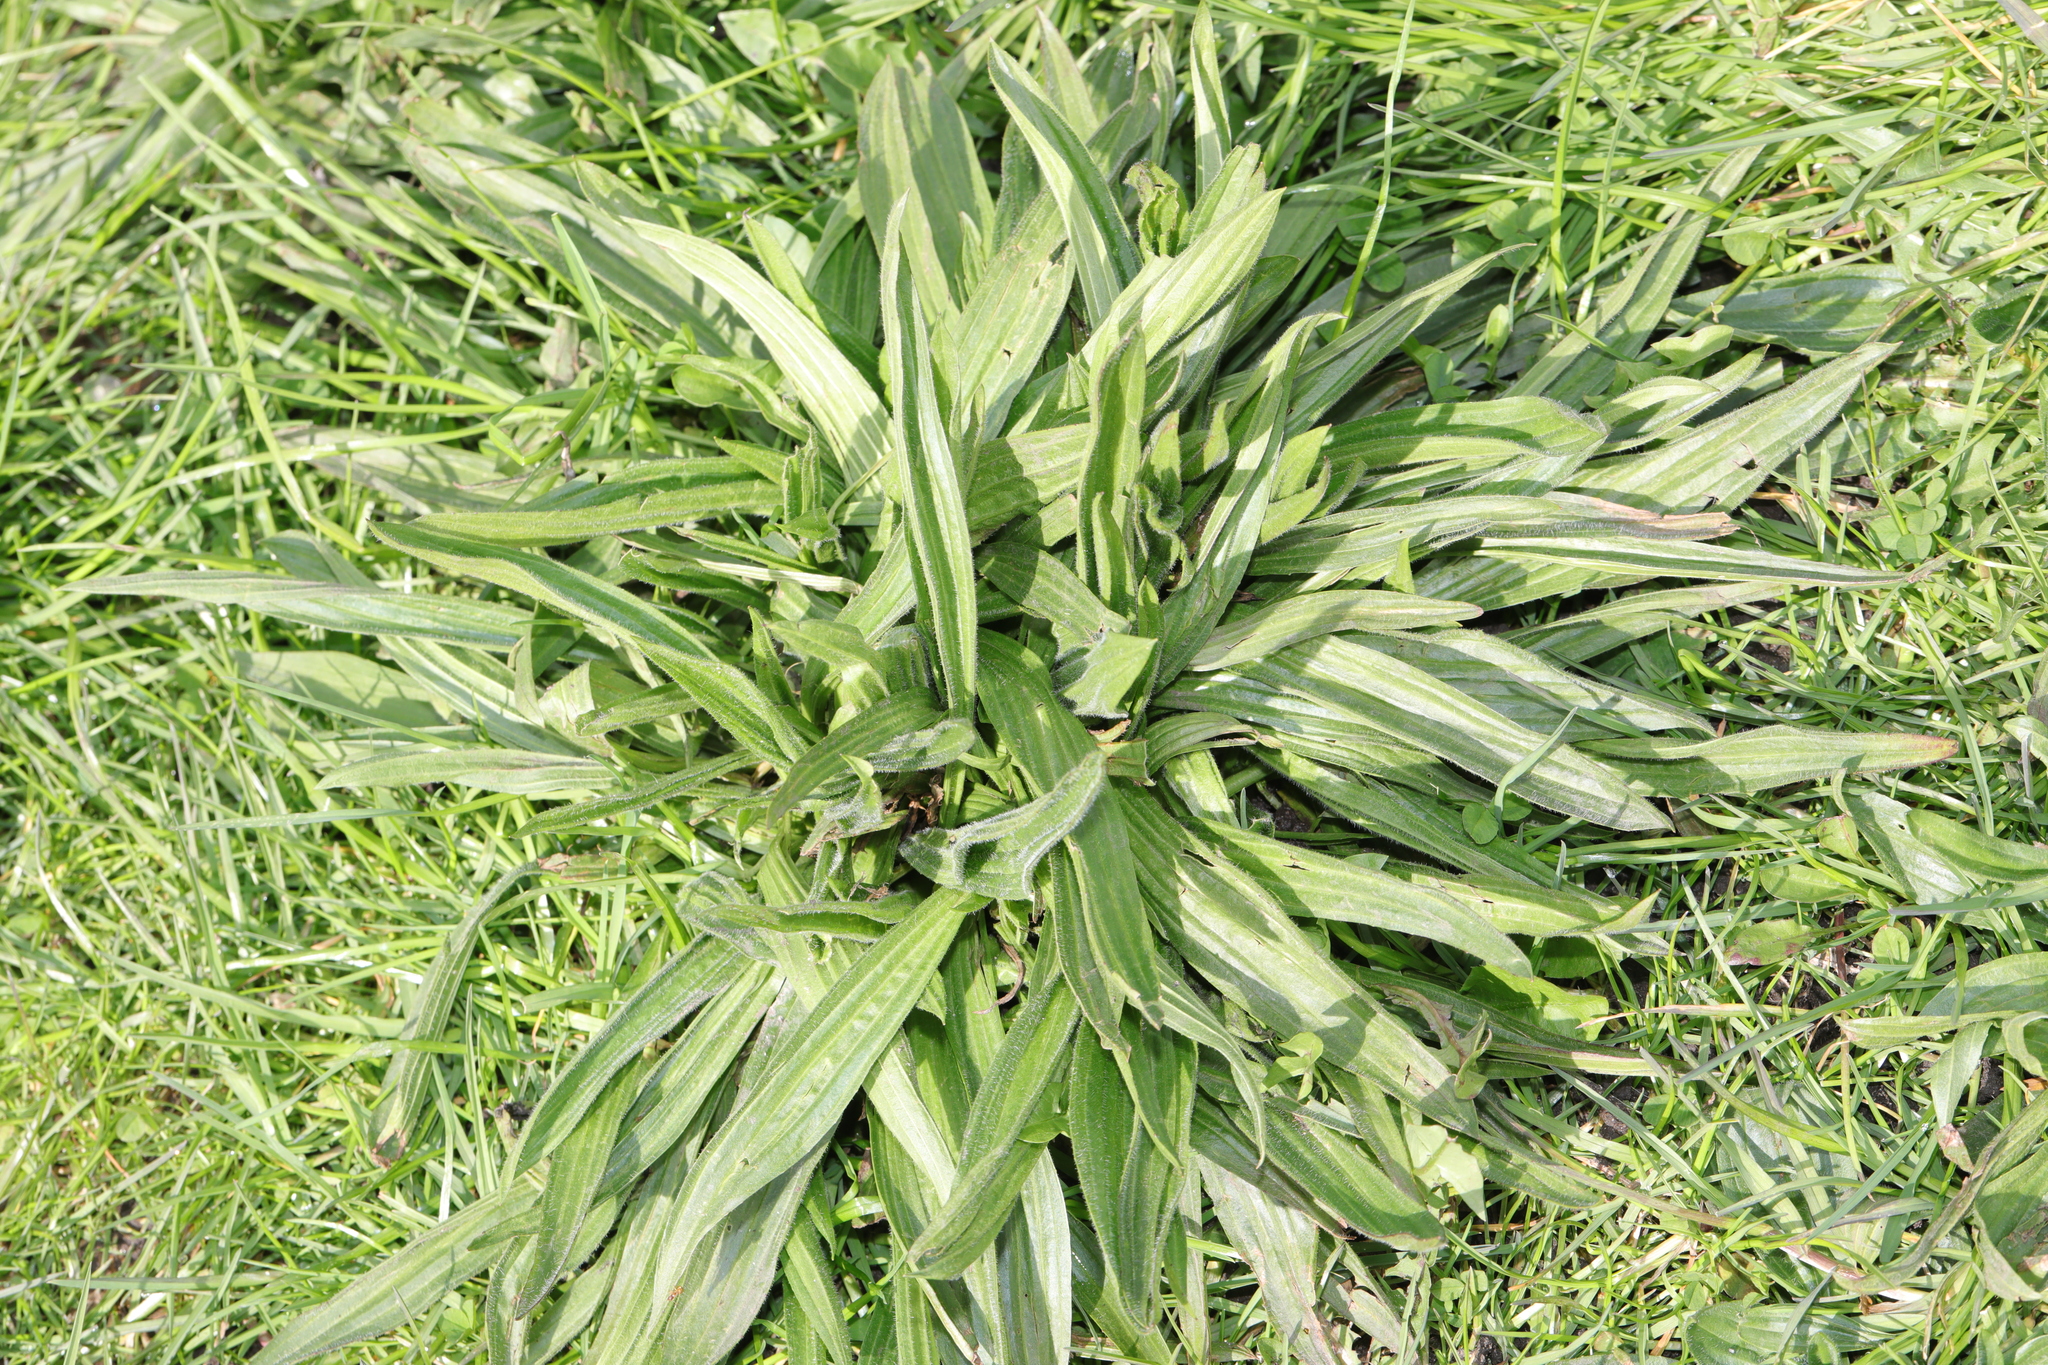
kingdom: Plantae
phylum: Tracheophyta
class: Magnoliopsida
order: Lamiales
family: Plantaginaceae
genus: Plantago
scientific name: Plantago lanceolata
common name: Ribwort plantain
